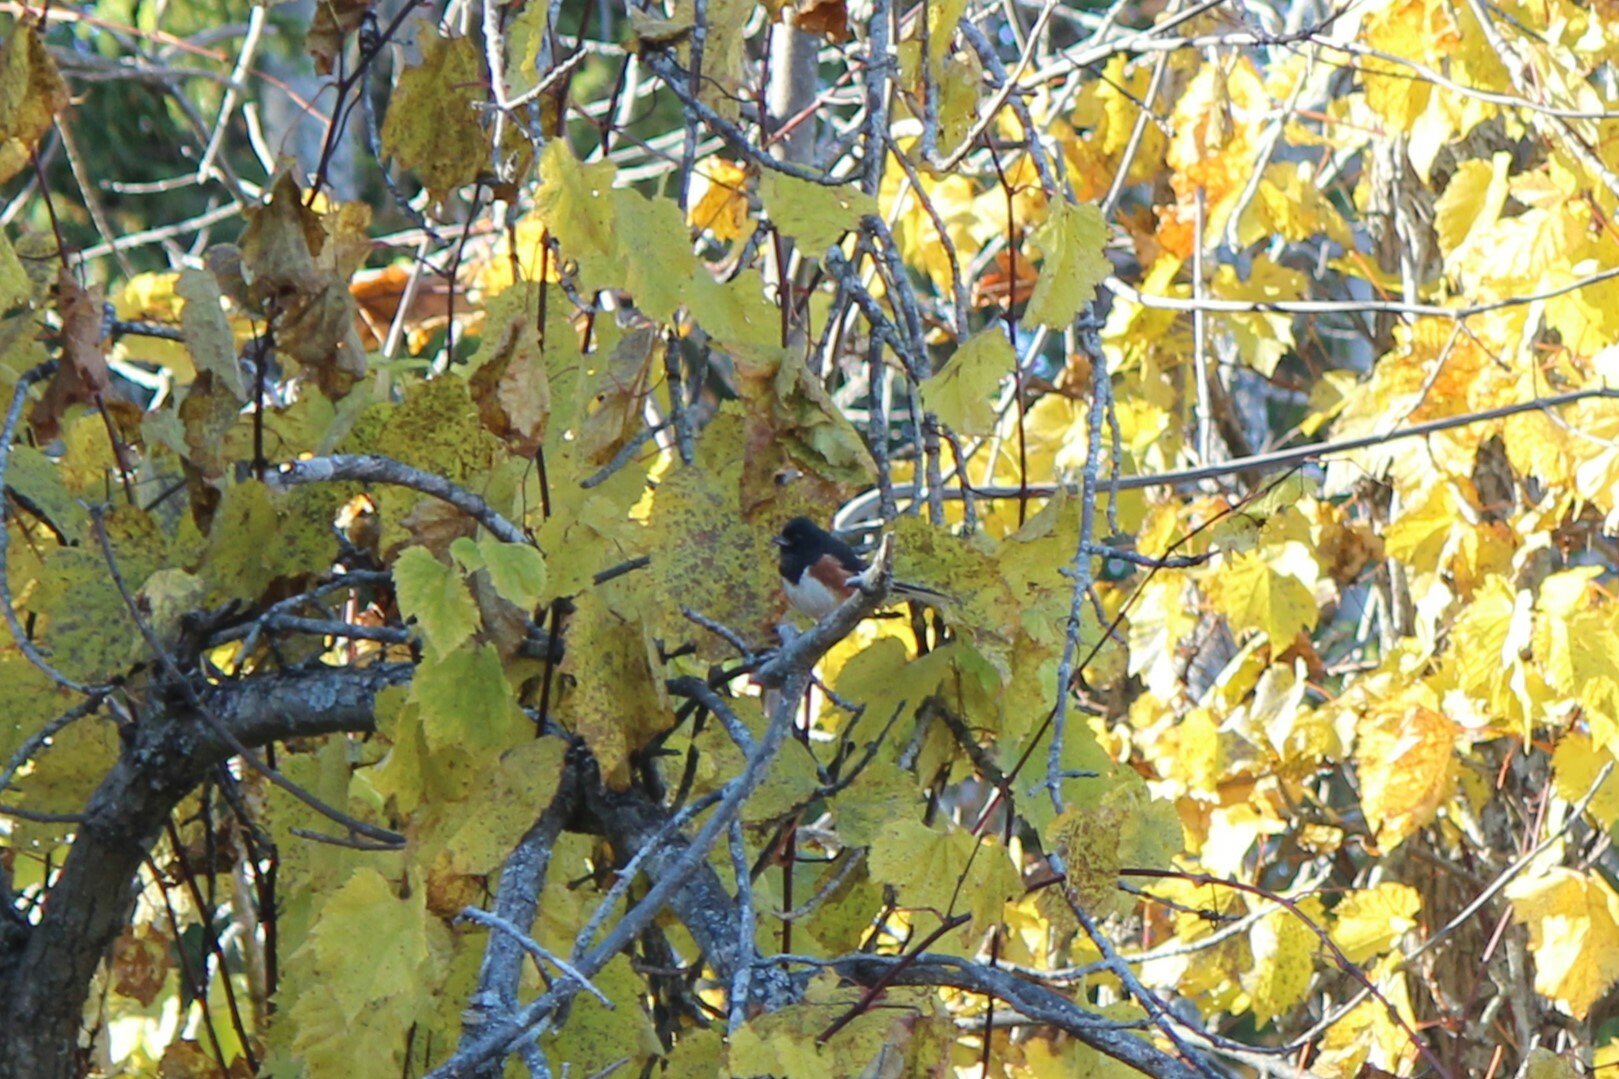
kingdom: Animalia
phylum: Chordata
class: Aves
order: Passeriformes
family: Passerellidae
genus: Pipilo
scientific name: Pipilo erythrophthalmus
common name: Eastern towhee
